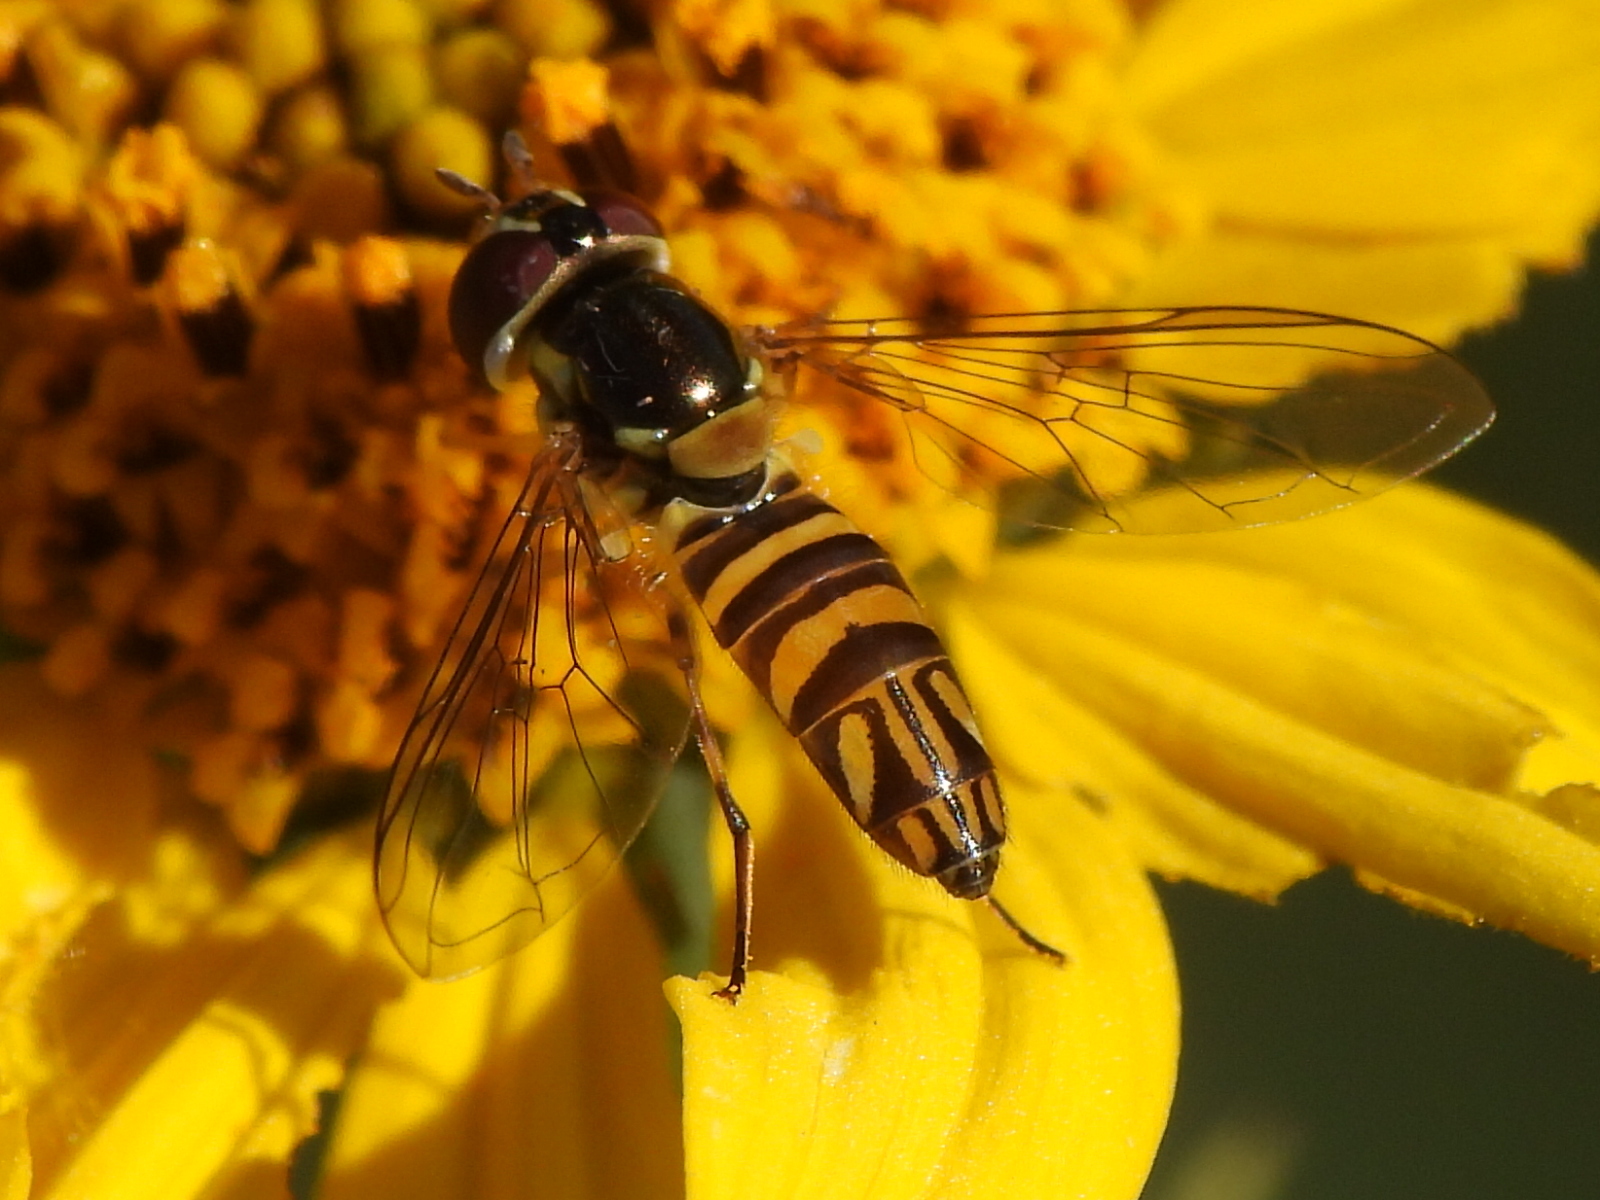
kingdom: Animalia
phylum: Arthropoda
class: Insecta
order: Diptera
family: Syrphidae
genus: Allograpta
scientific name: Allograpta obliqua
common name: Common oblique syrphid
